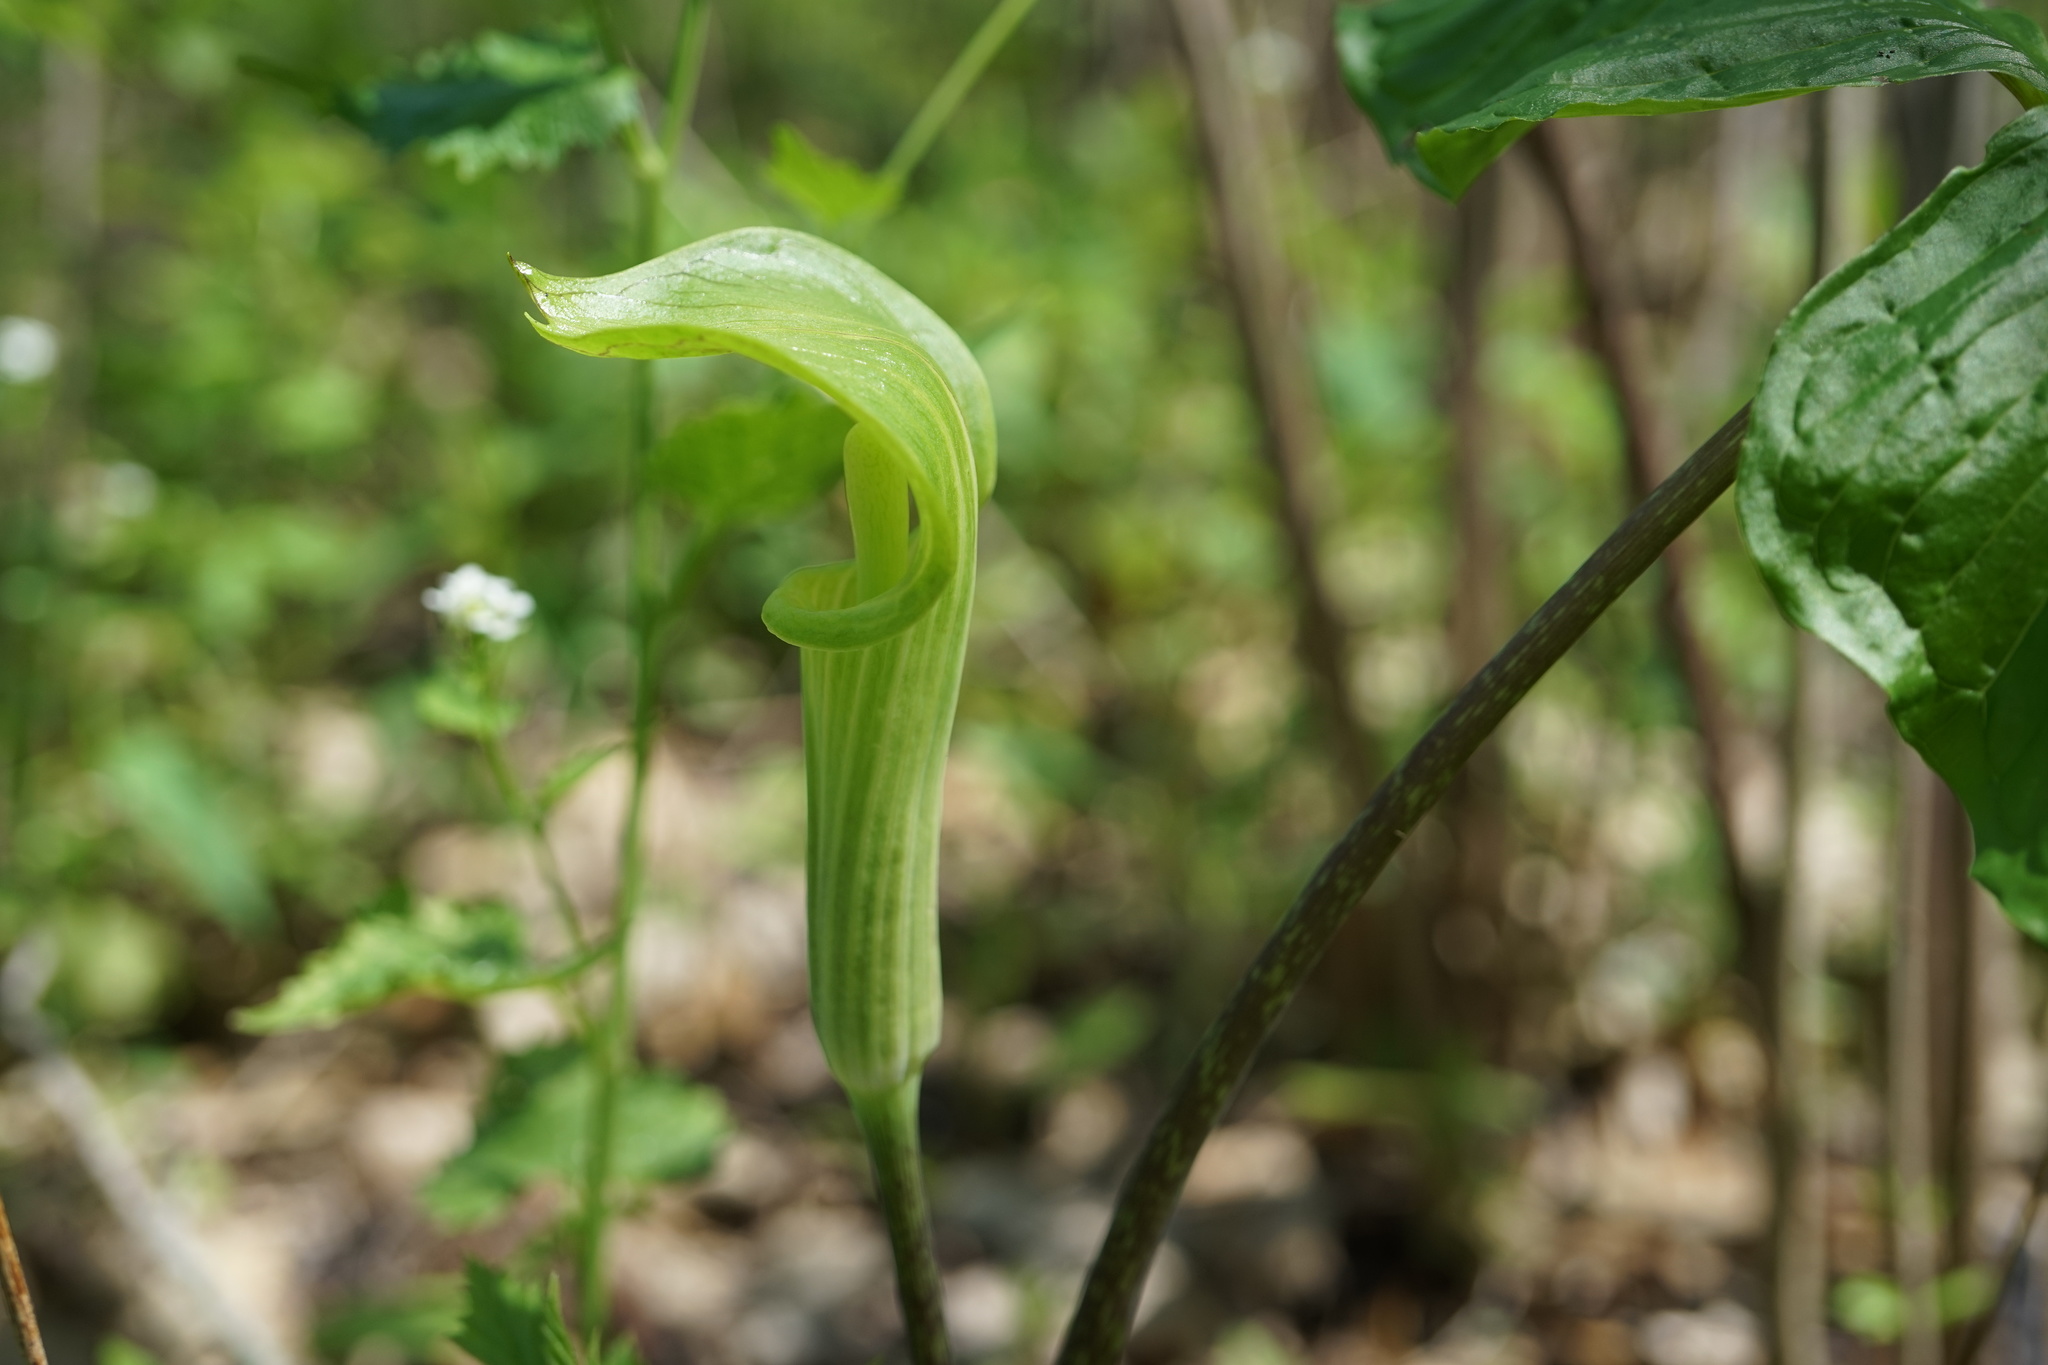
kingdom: Plantae
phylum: Tracheophyta
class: Liliopsida
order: Alismatales
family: Araceae
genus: Arisaema
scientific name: Arisaema triphyllum
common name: Jack-in-the-pulpit
